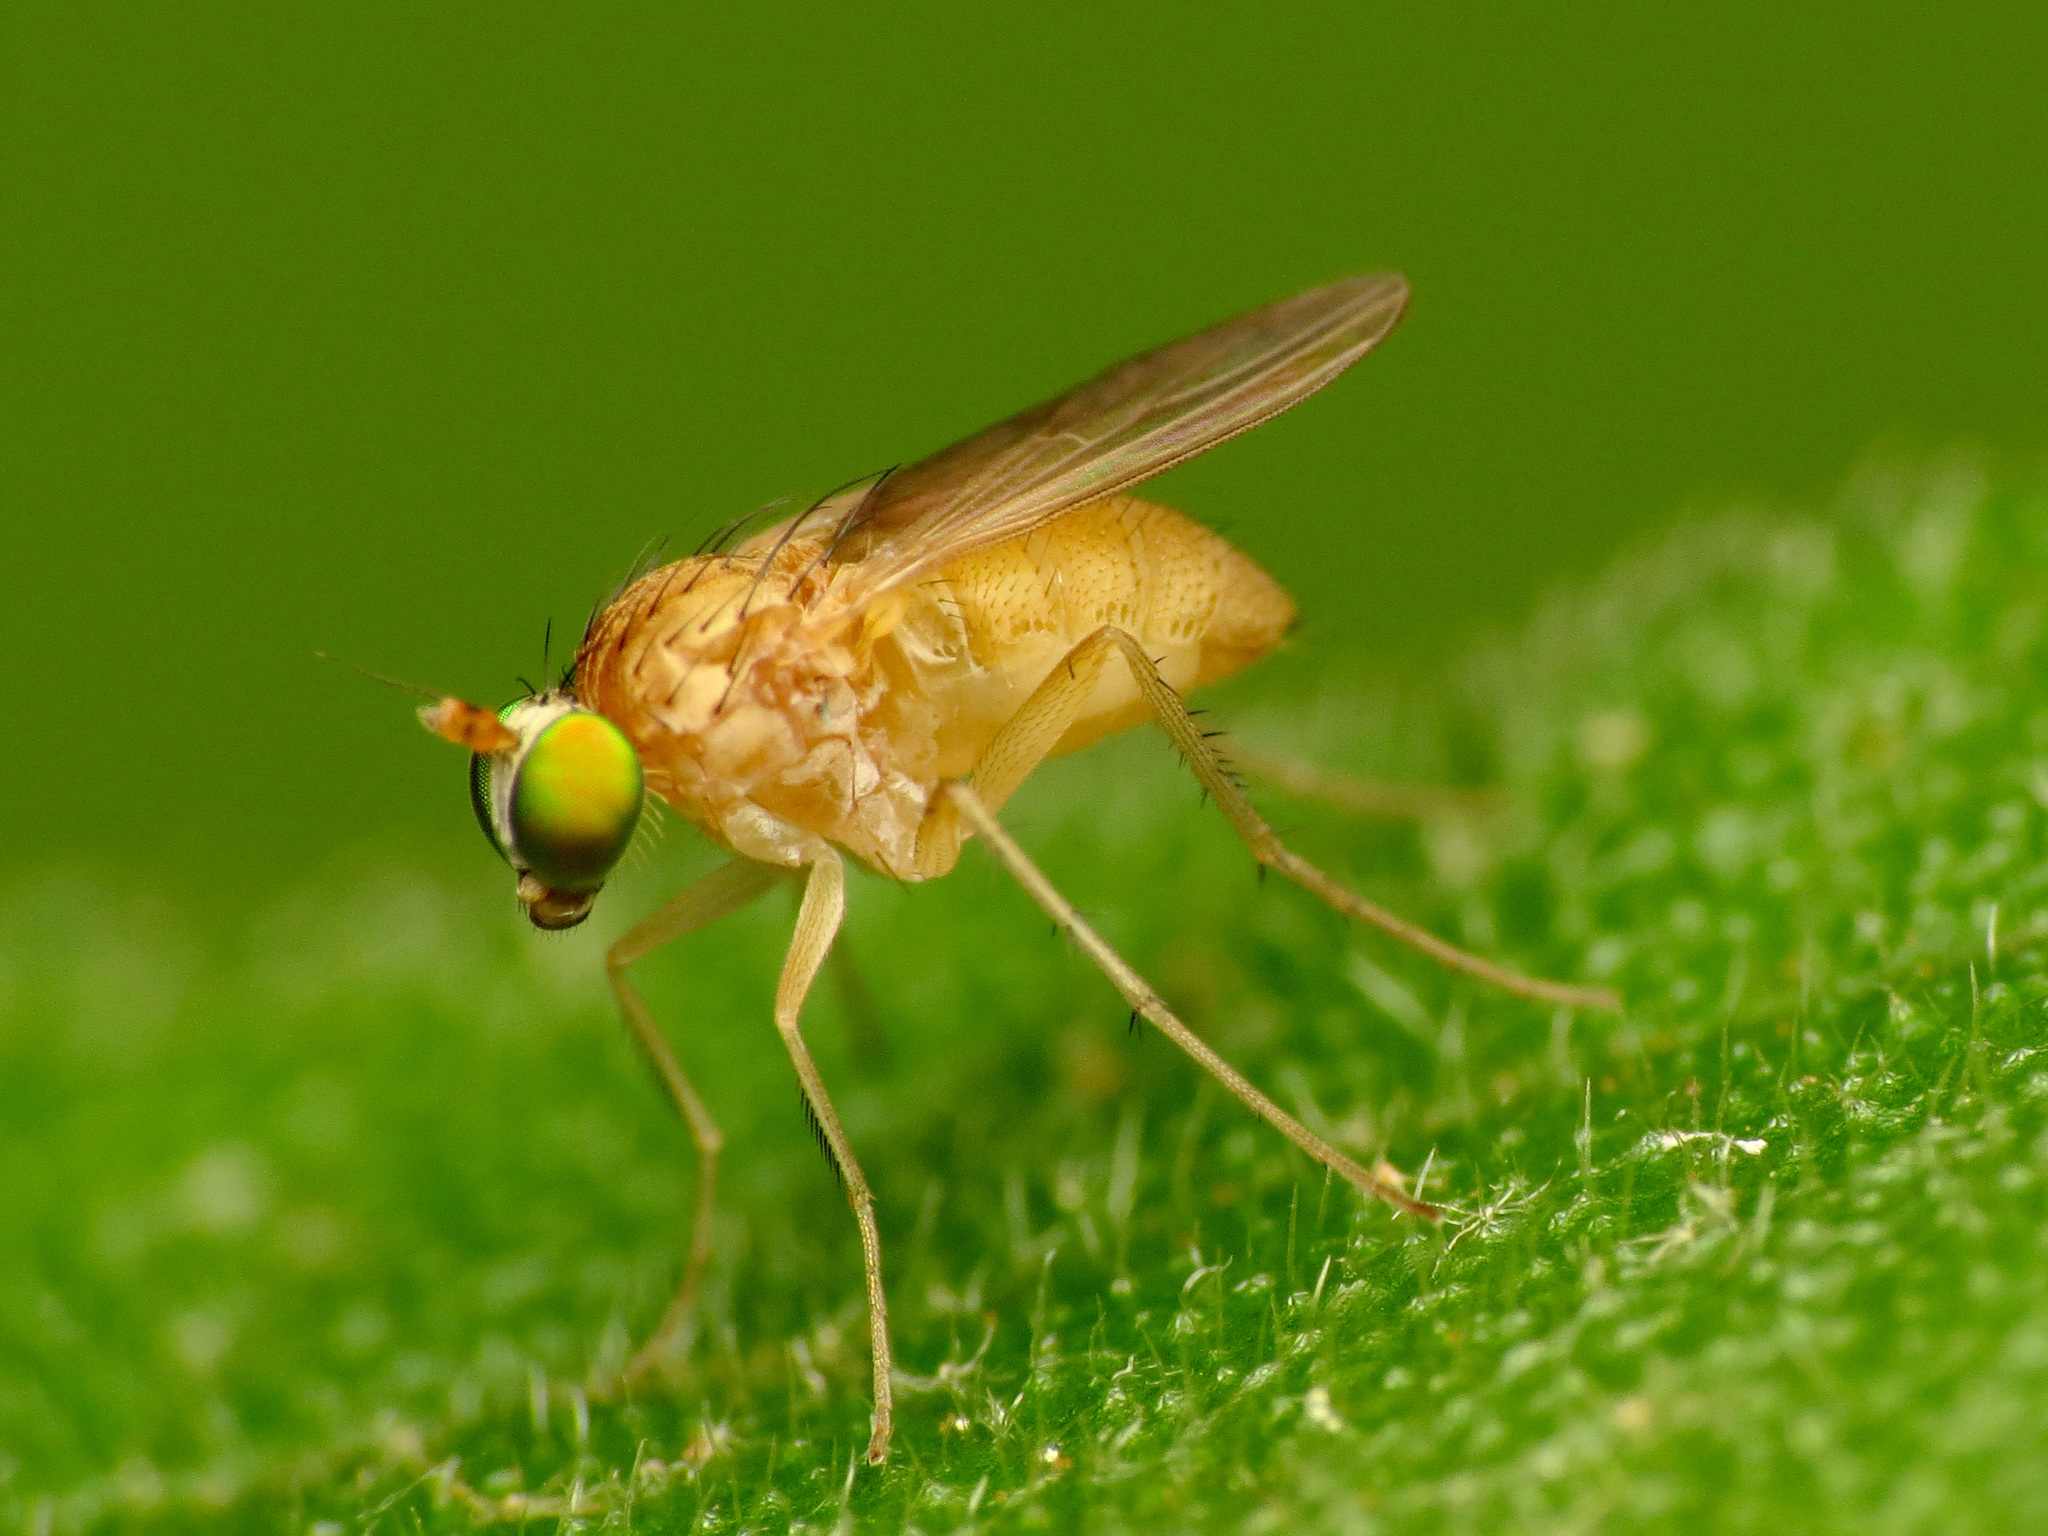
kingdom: Animalia
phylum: Arthropoda
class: Insecta
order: Diptera
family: Dolichopodidae
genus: Gymnopternus
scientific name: Gymnopternus flavus
